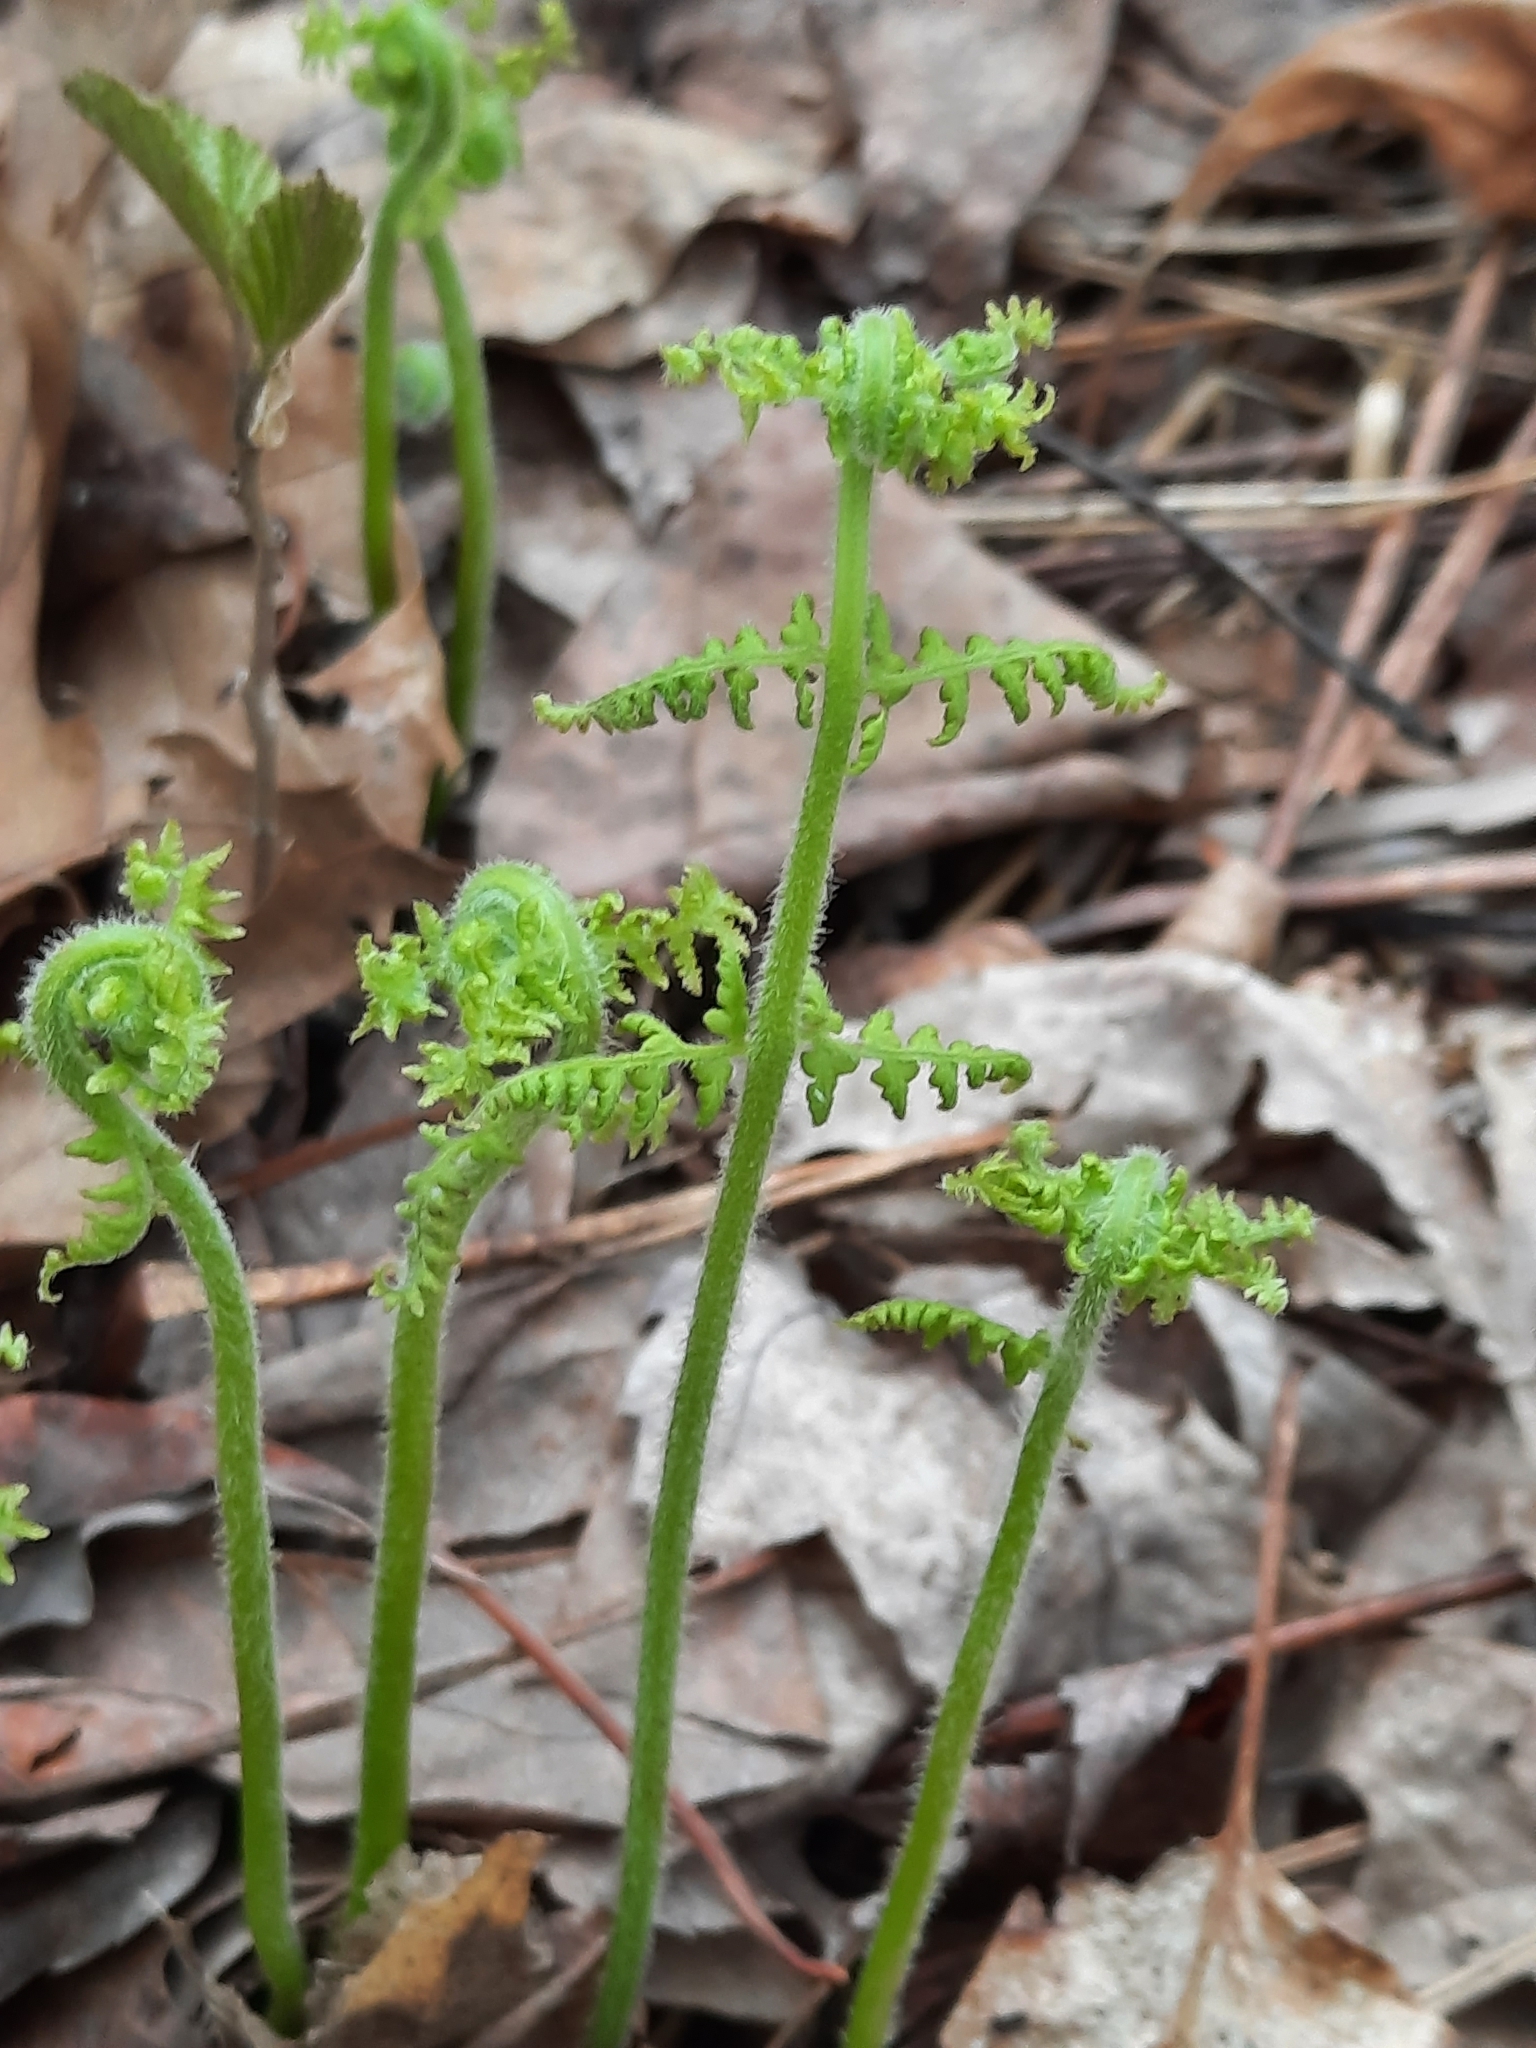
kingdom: Plantae
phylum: Tracheophyta
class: Polypodiopsida
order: Polypodiales
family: Dennstaedtiaceae
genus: Sitobolium
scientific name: Sitobolium punctilobum
